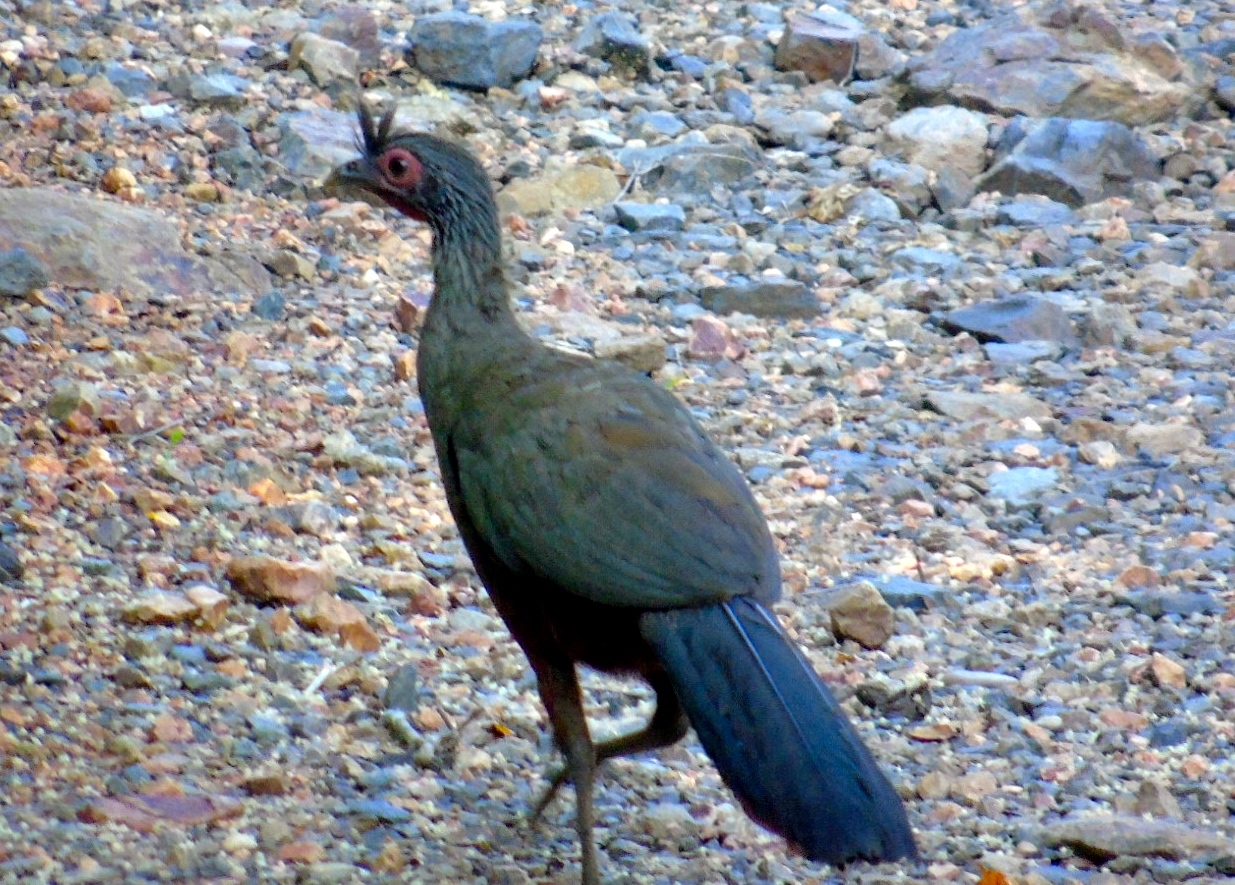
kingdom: Animalia
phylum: Chordata
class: Aves
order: Galliformes
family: Cracidae
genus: Ortalis
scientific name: Ortalis wagleri
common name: Rufous-bellied chachalaca
